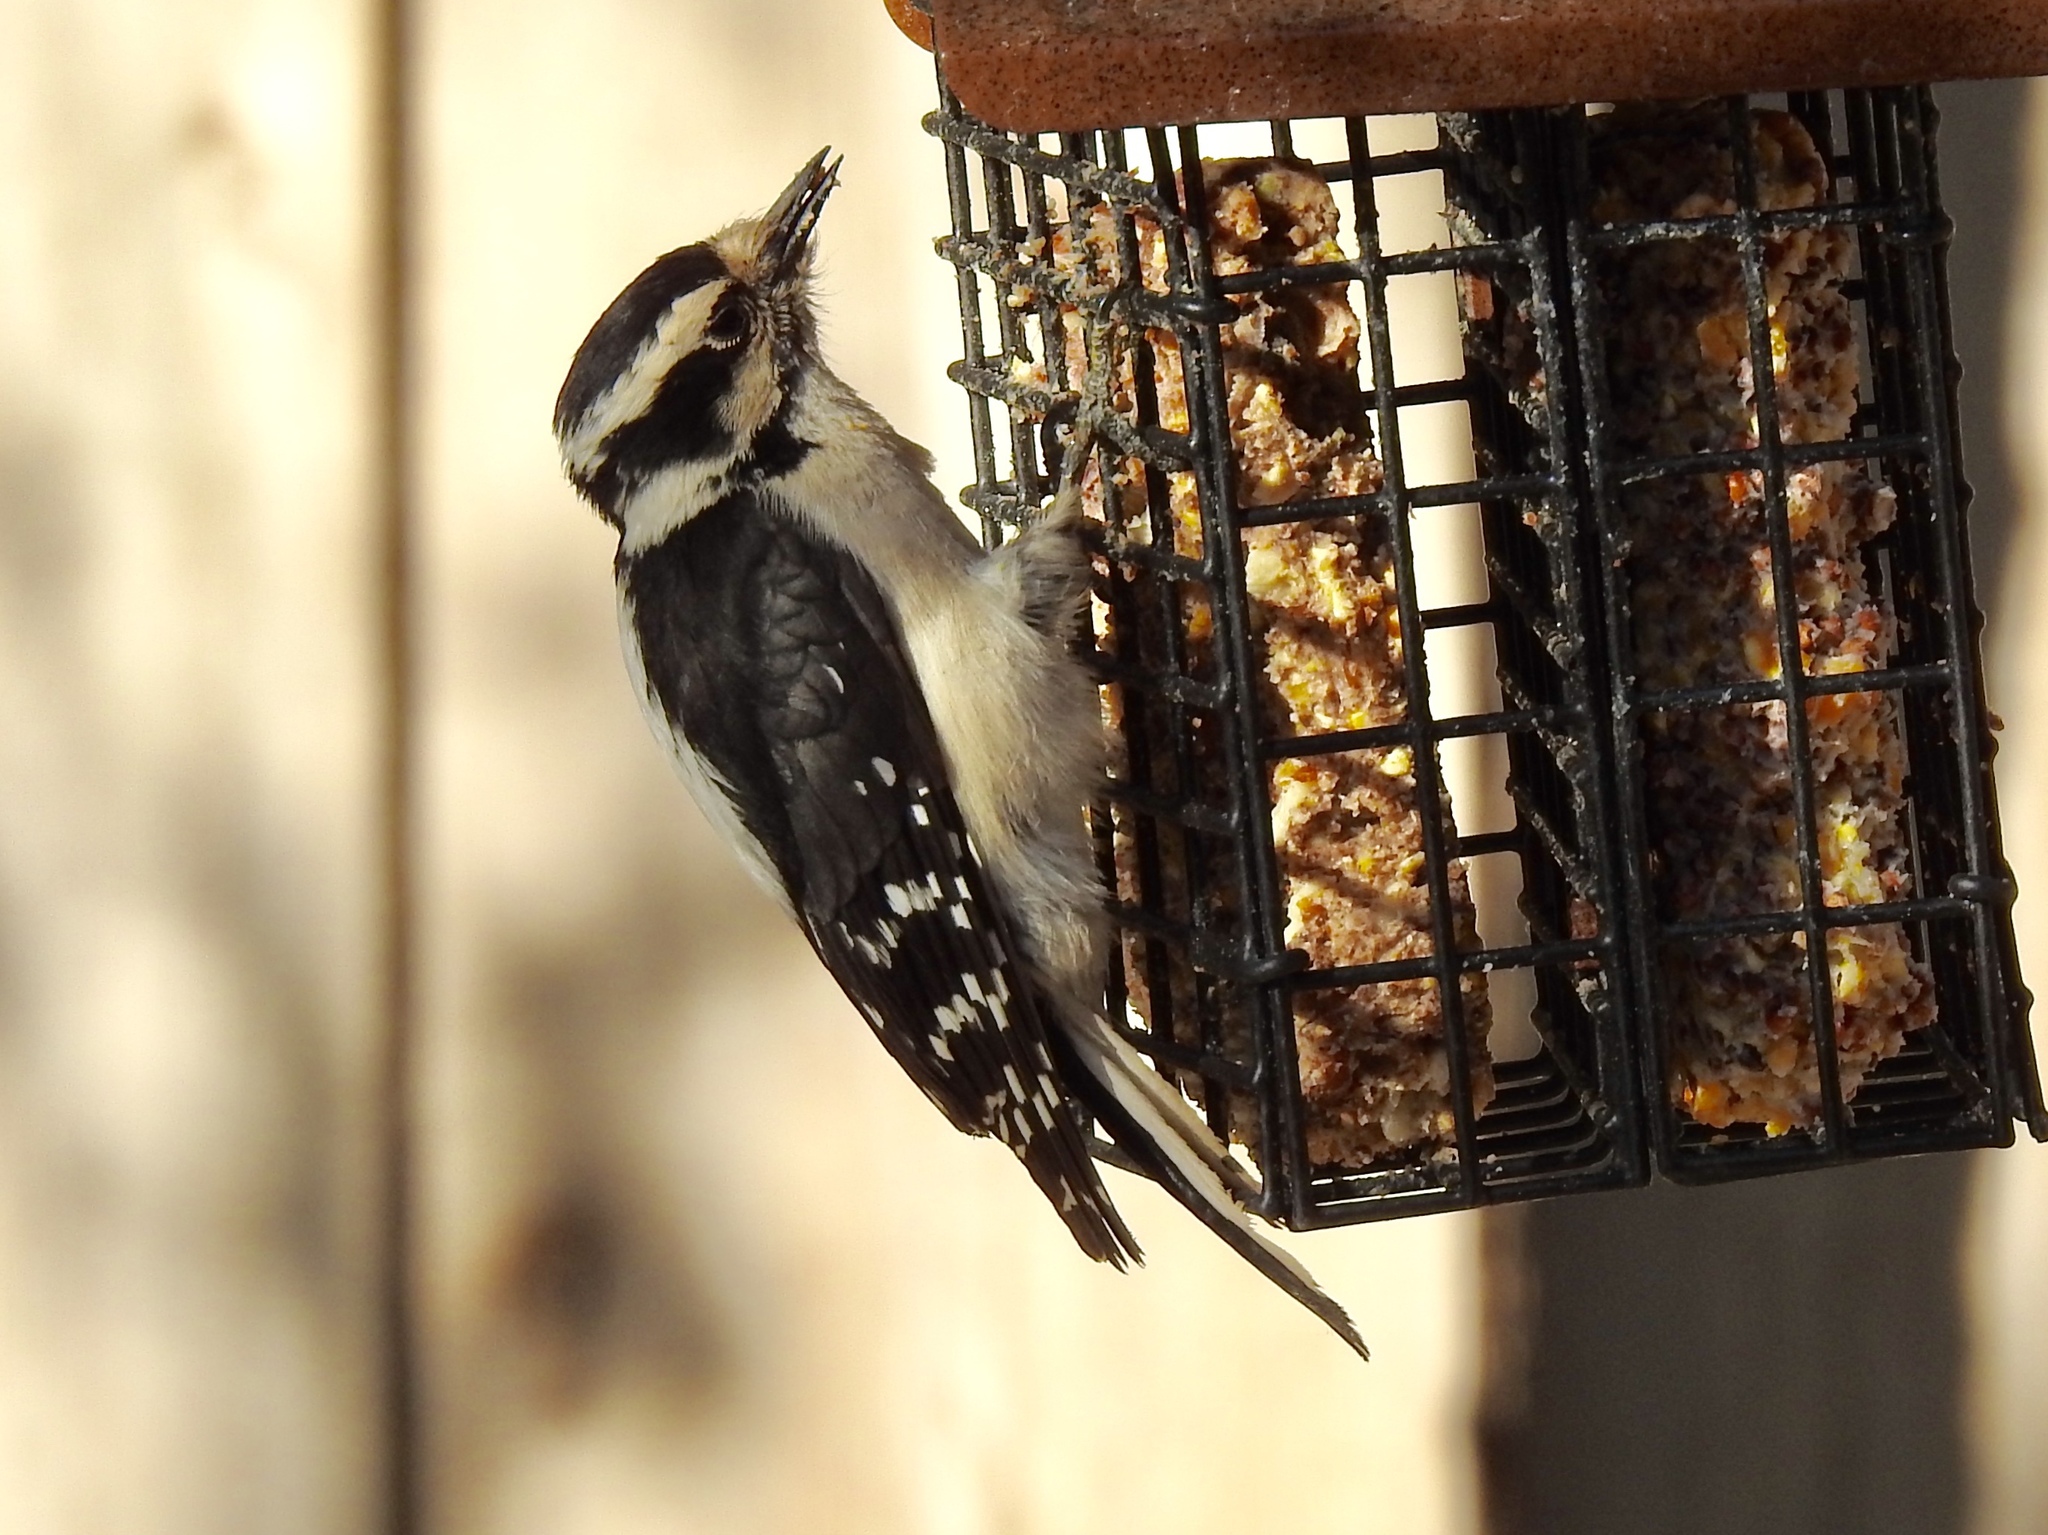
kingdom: Animalia
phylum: Chordata
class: Aves
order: Piciformes
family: Picidae
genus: Dryobates
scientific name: Dryobates pubescens
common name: Downy woodpecker
